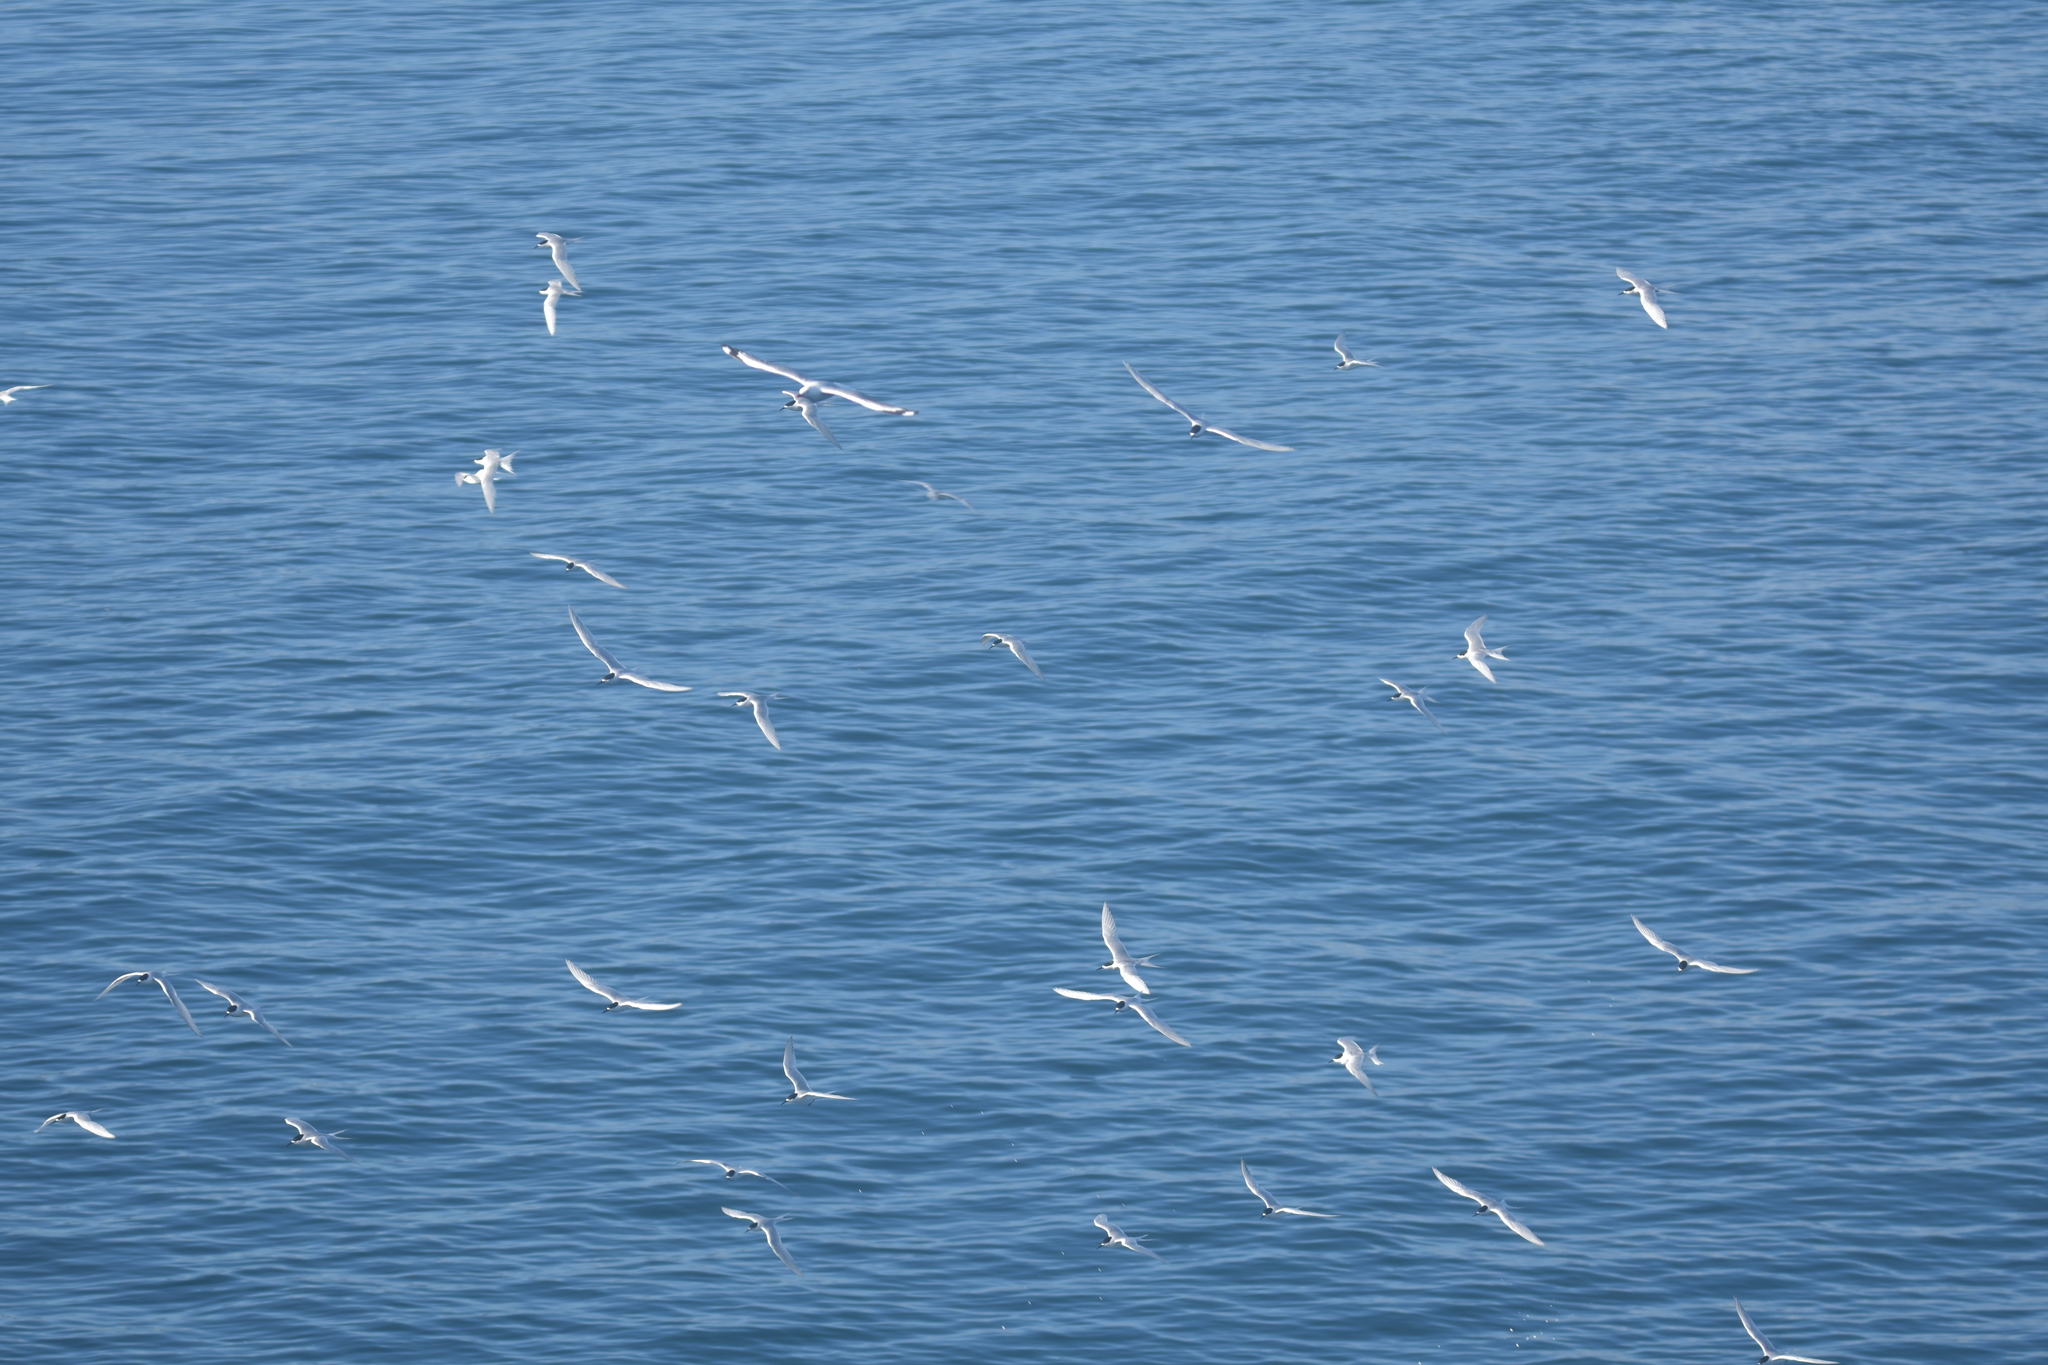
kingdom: Animalia
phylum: Chordata
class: Aves
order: Charadriiformes
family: Laridae
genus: Sterna
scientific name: Sterna striata
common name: White-fronted tern
